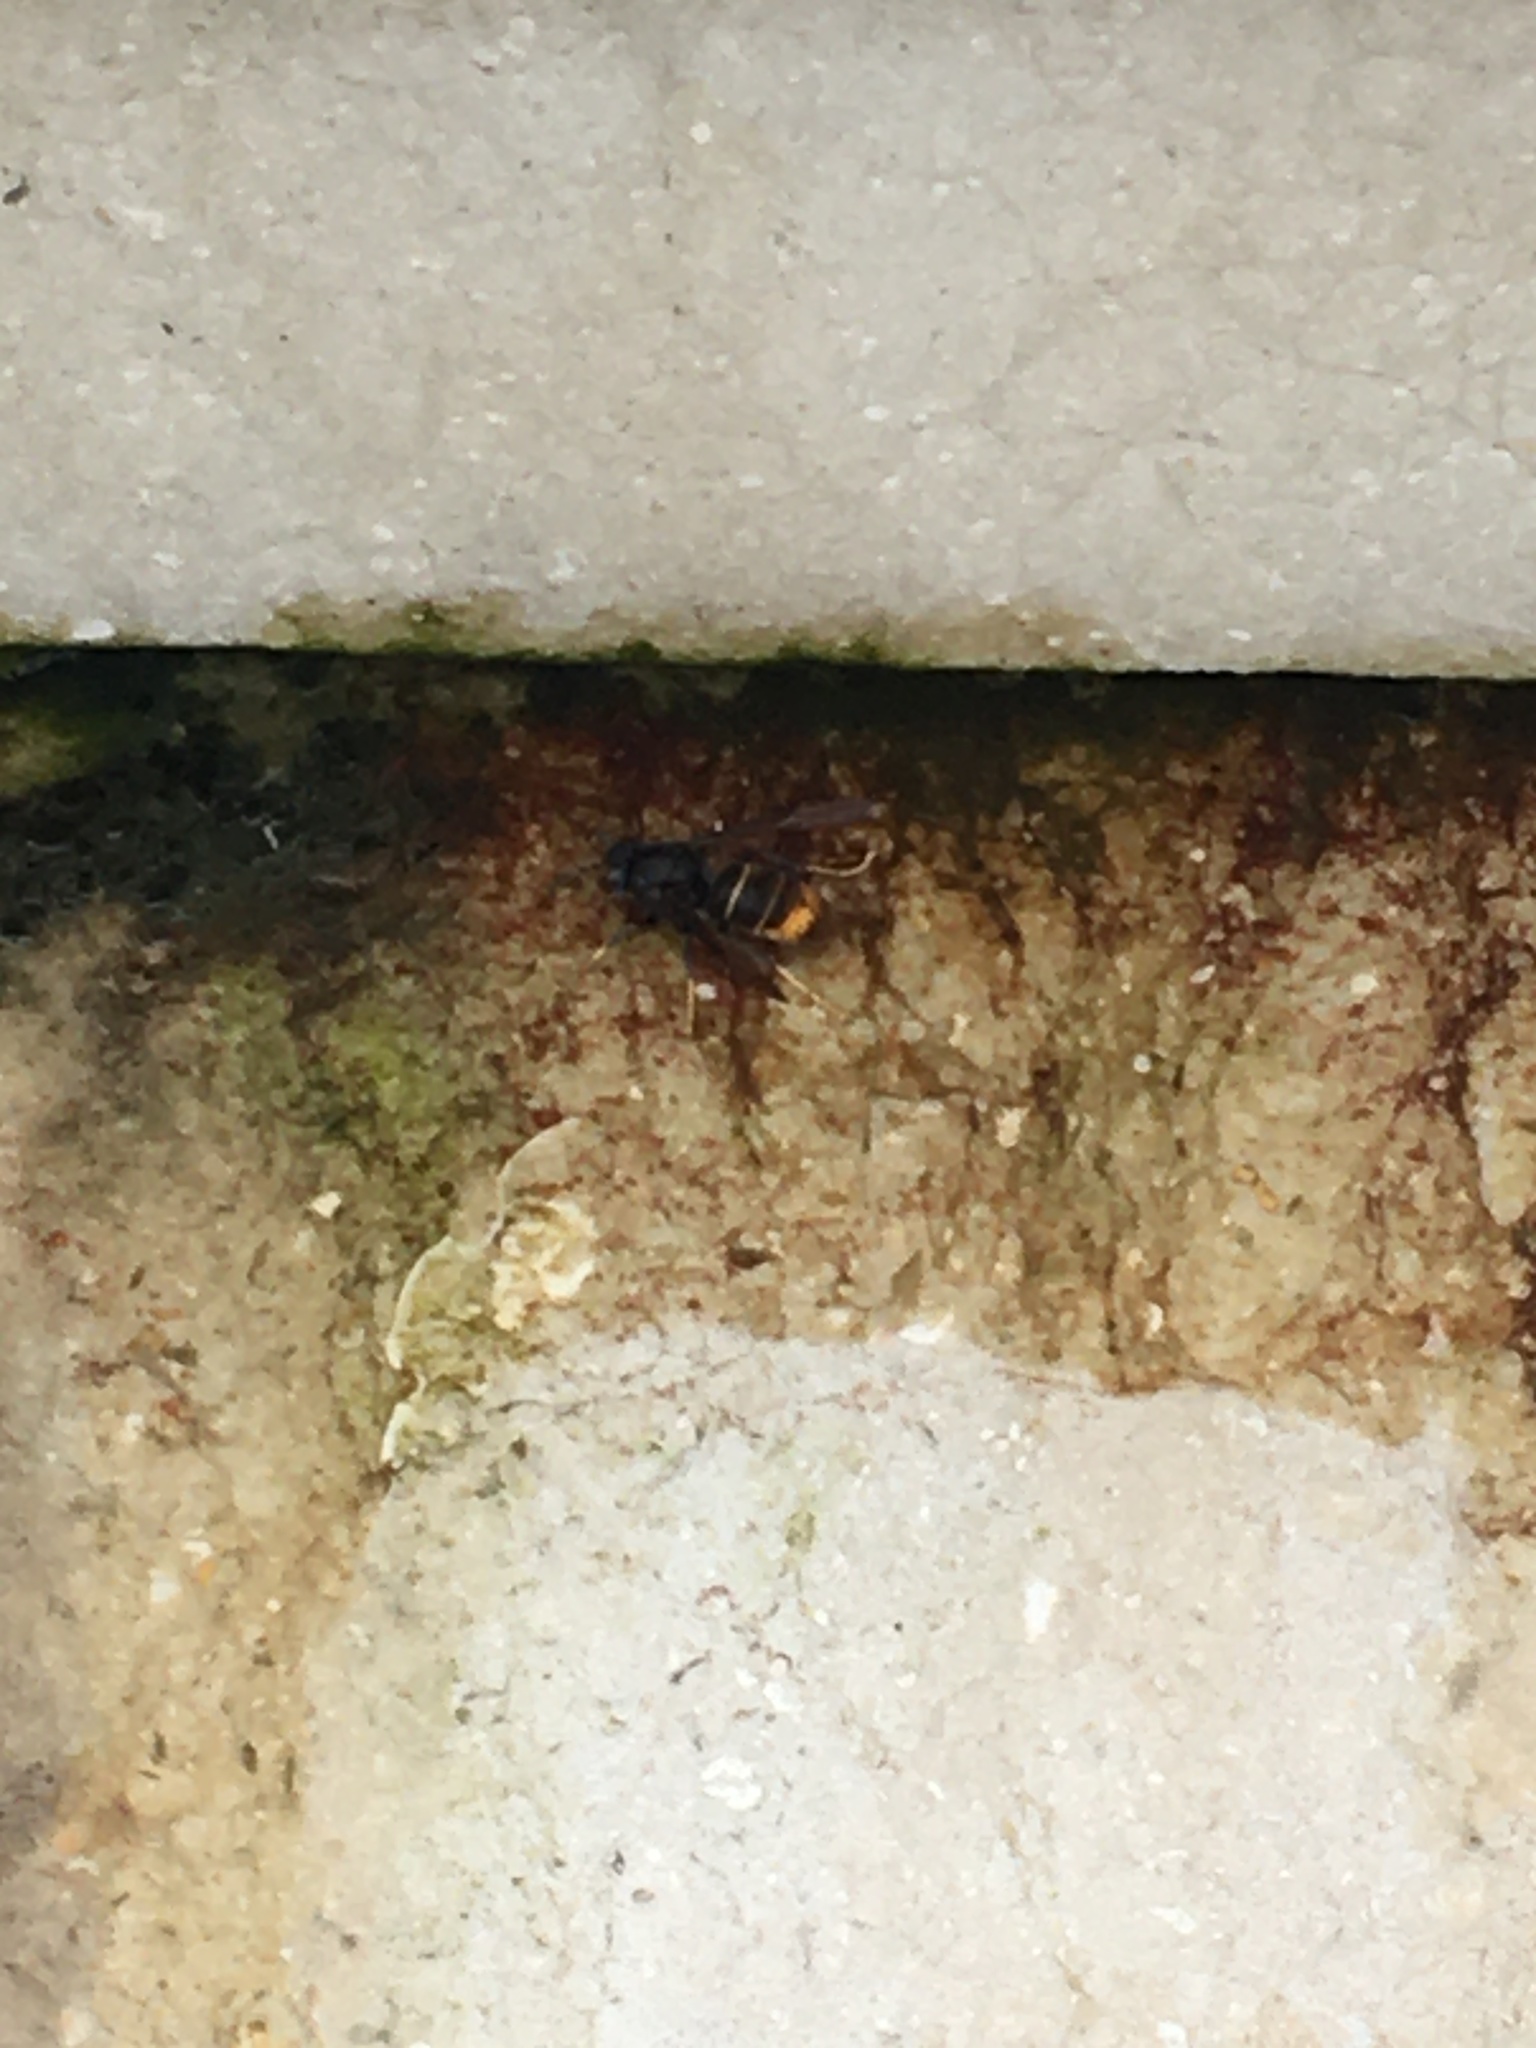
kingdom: Animalia
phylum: Arthropoda
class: Insecta
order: Hymenoptera
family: Vespidae
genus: Vespa
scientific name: Vespa velutina
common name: Asian hornet
